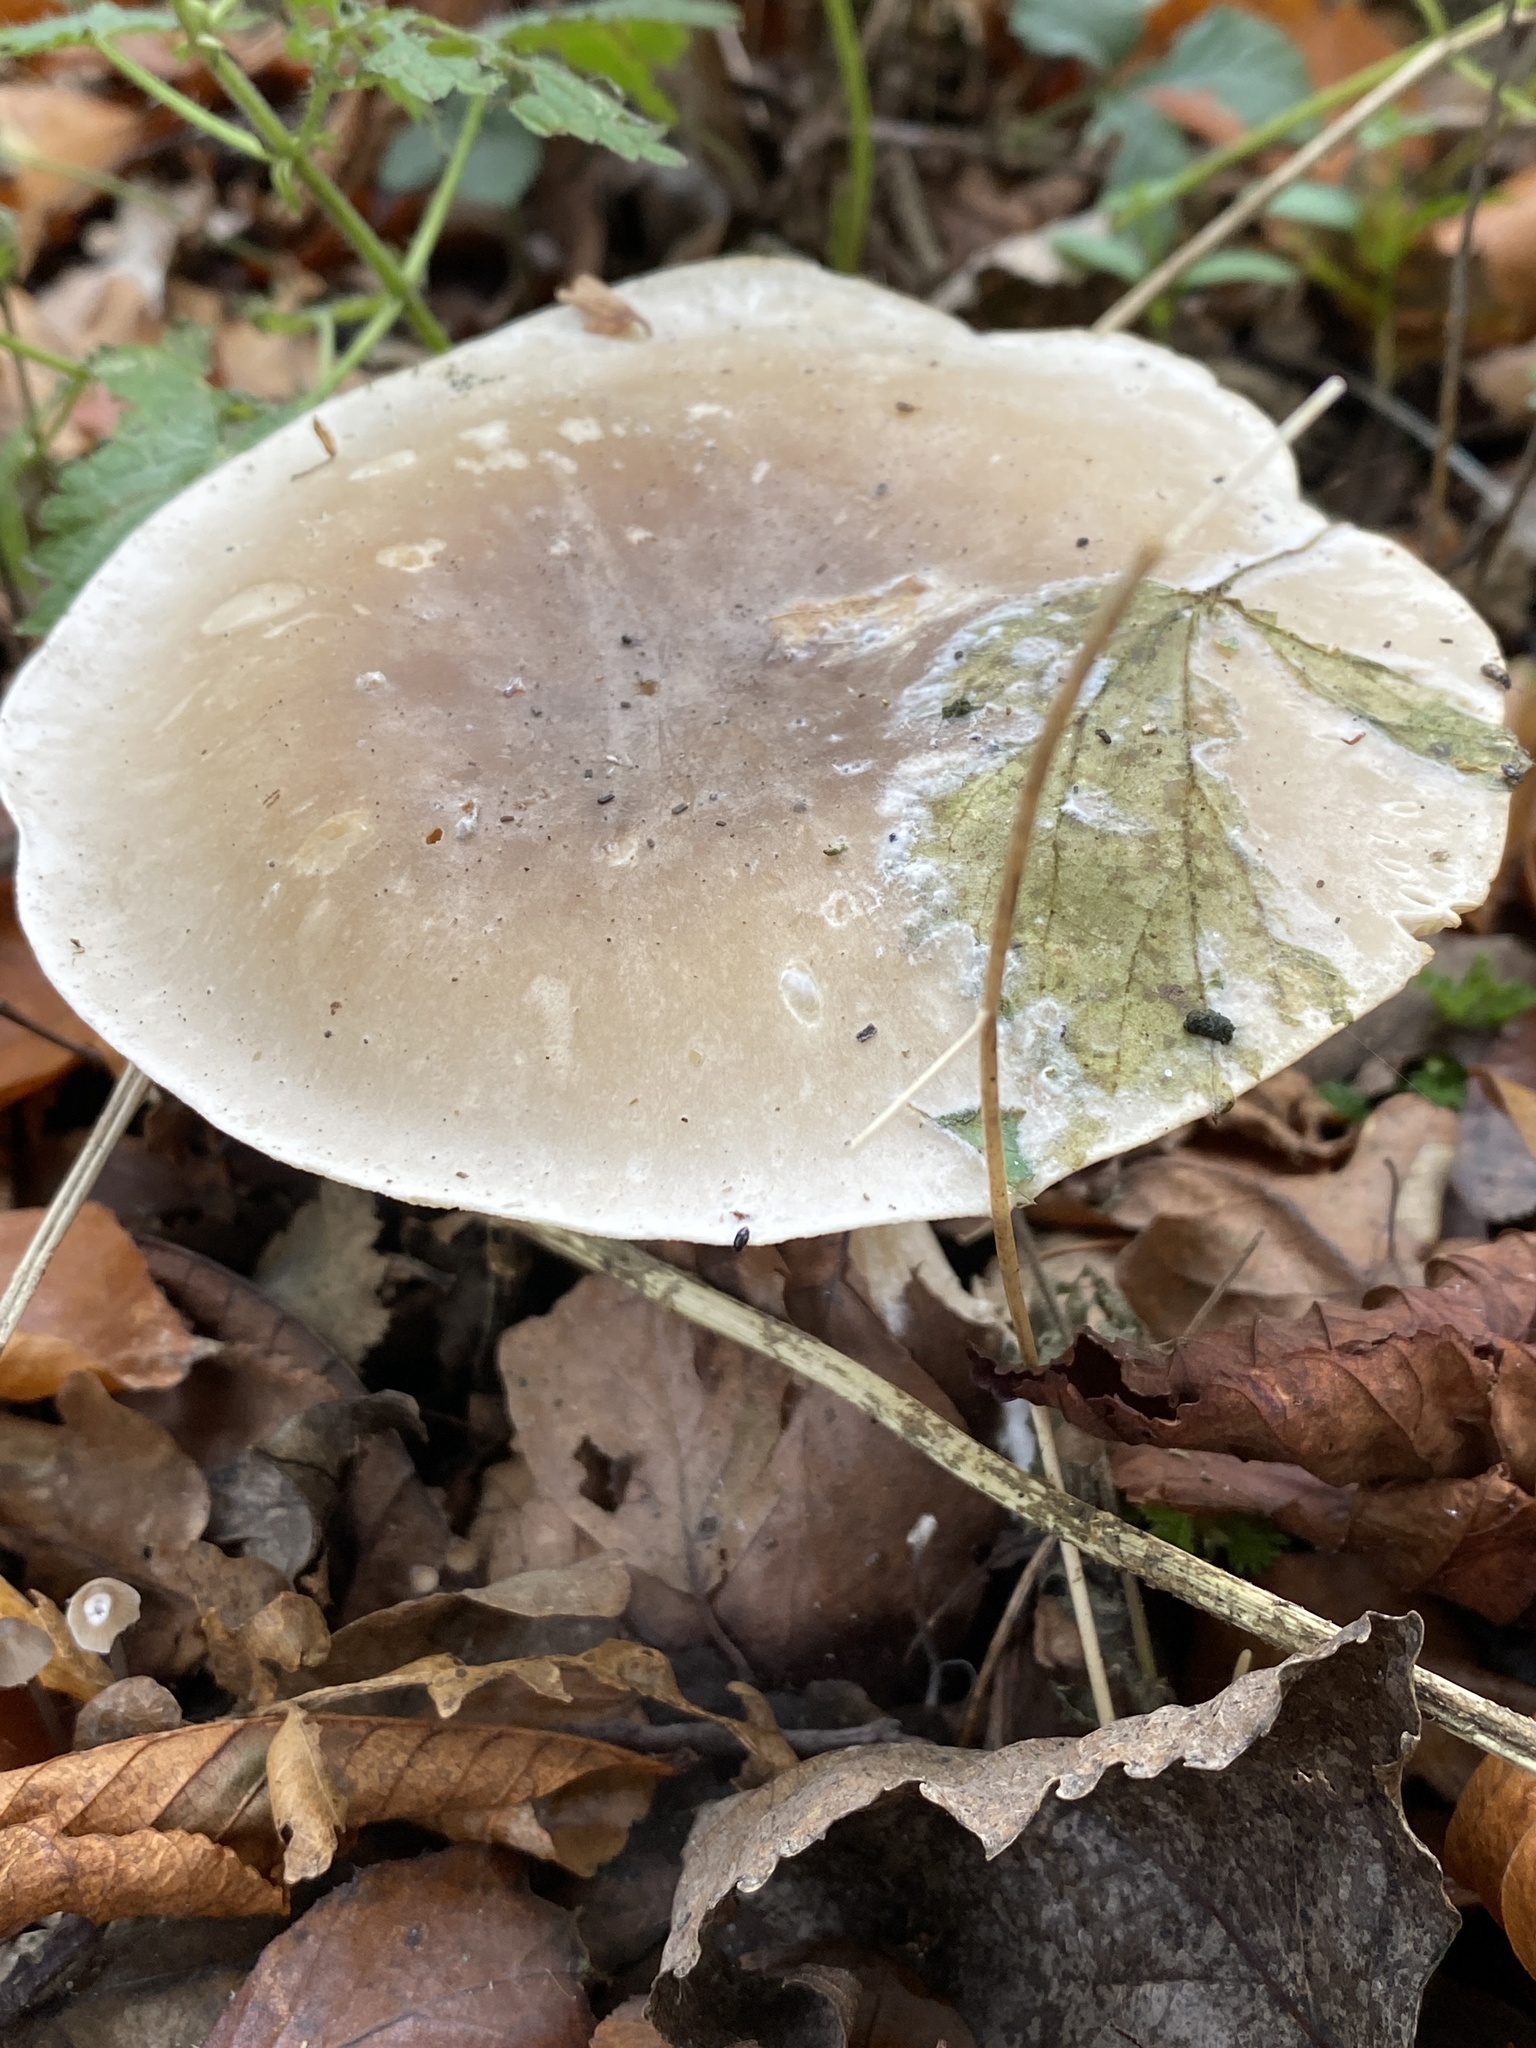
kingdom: Fungi
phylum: Basidiomycota
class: Agaricomycetes
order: Agaricales
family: Tricholomataceae
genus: Clitocybe
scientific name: Clitocybe nebularis
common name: Clouded agaric
